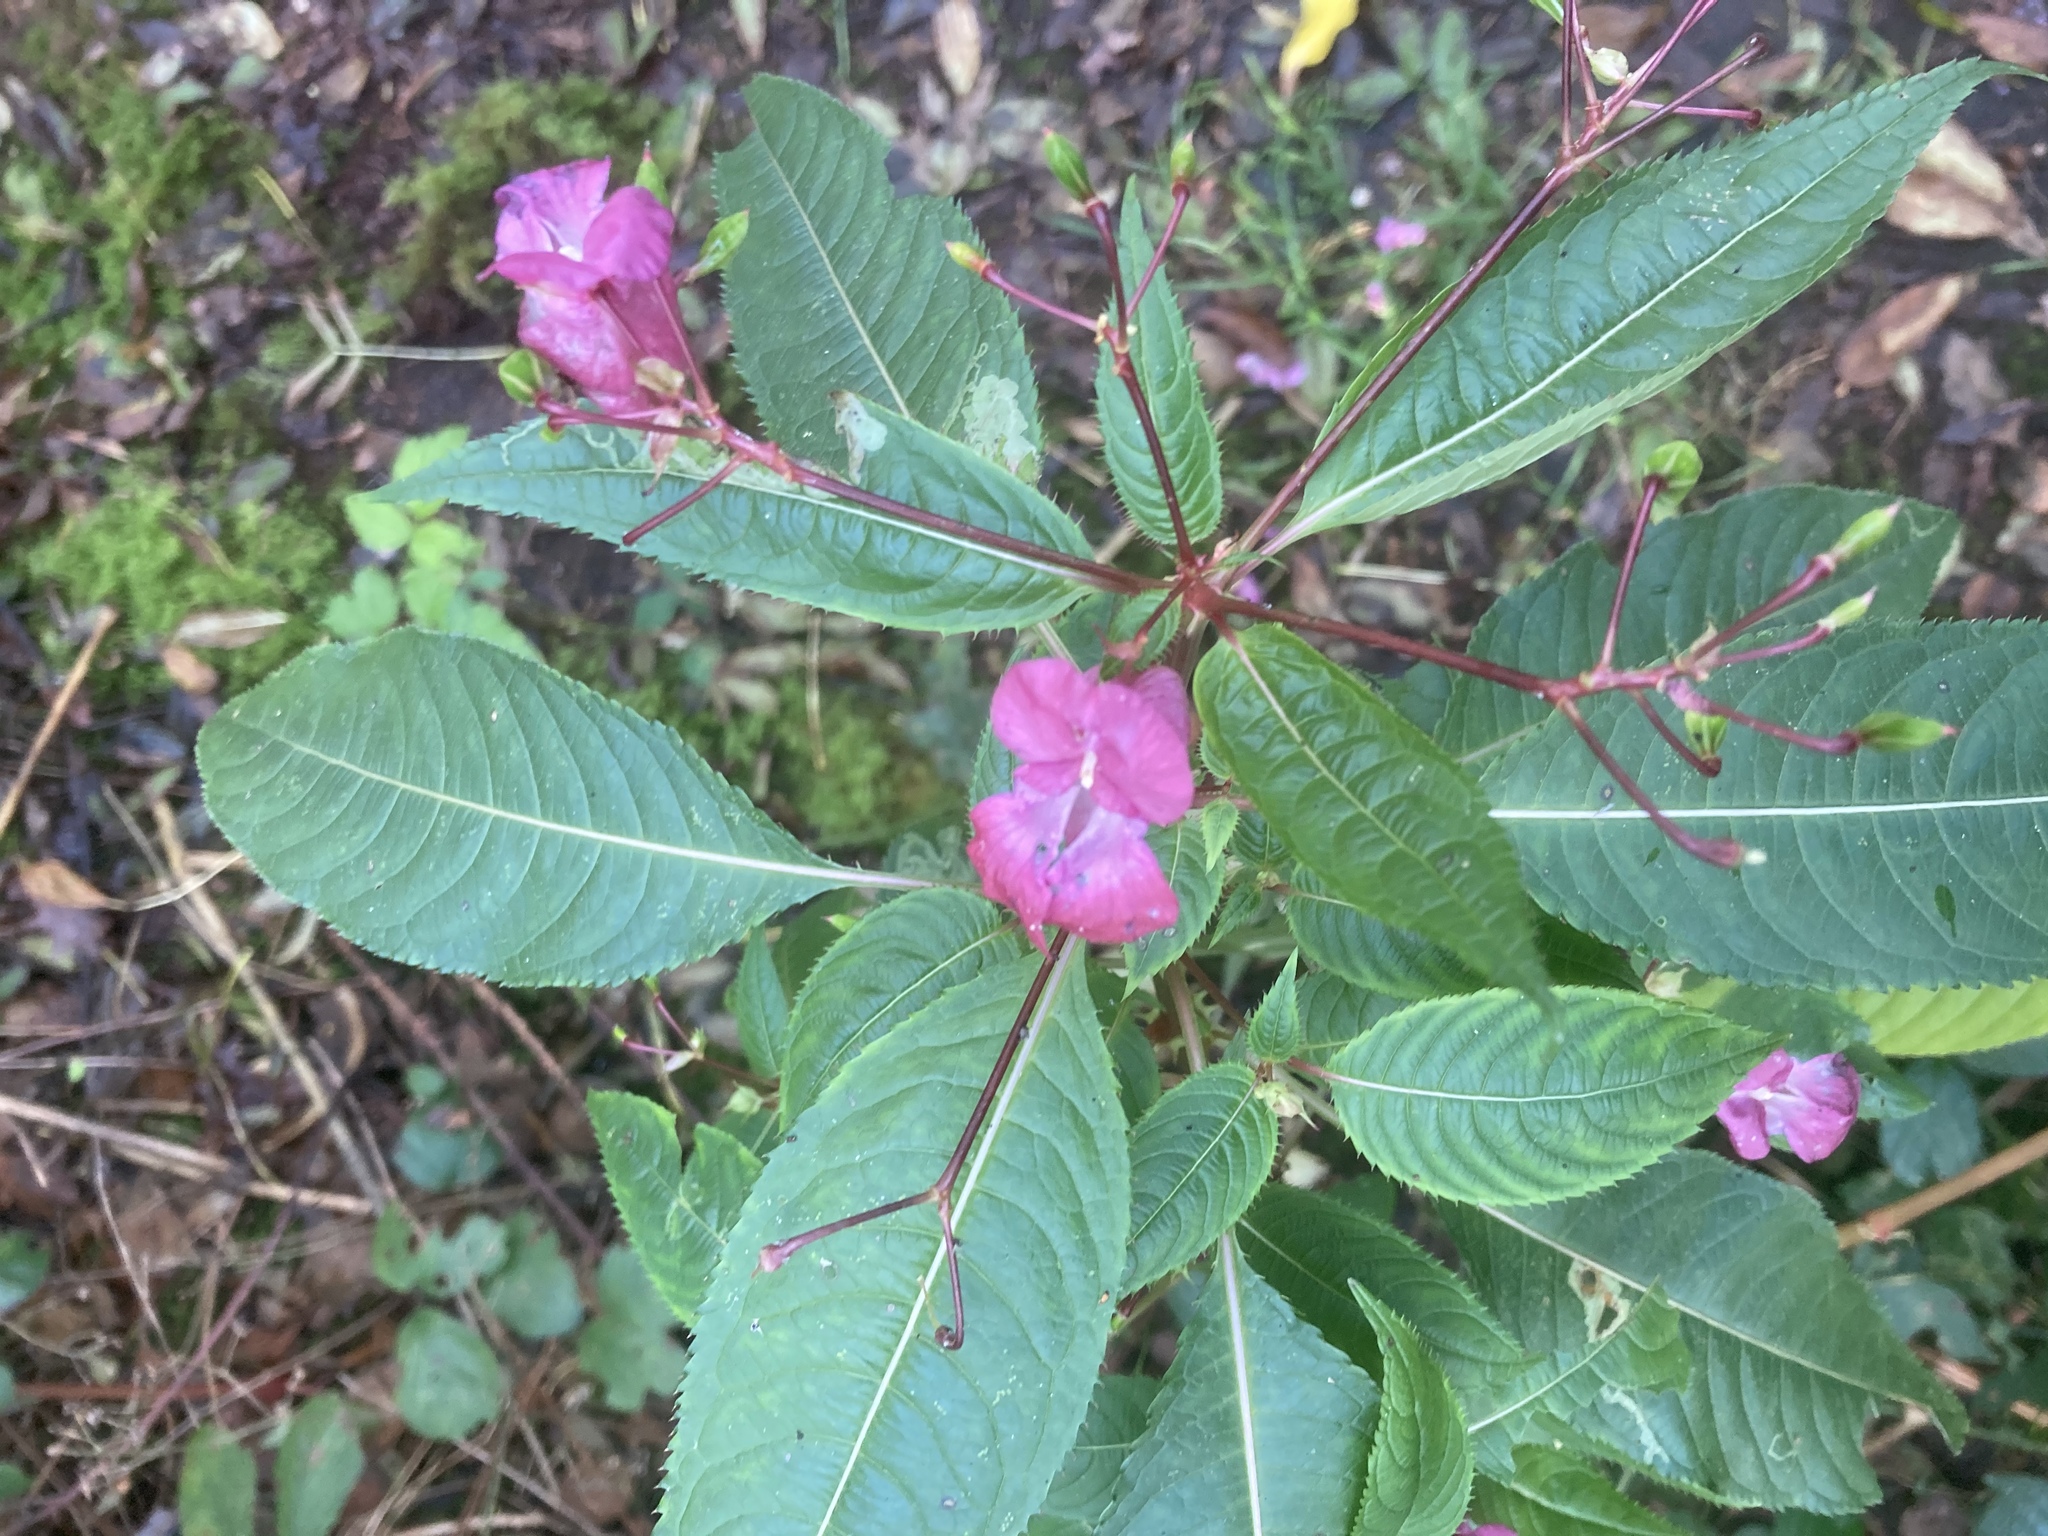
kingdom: Plantae
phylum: Tracheophyta
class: Magnoliopsida
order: Ericales
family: Balsaminaceae
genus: Impatiens
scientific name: Impatiens glandulifera
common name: Himalayan balsam
